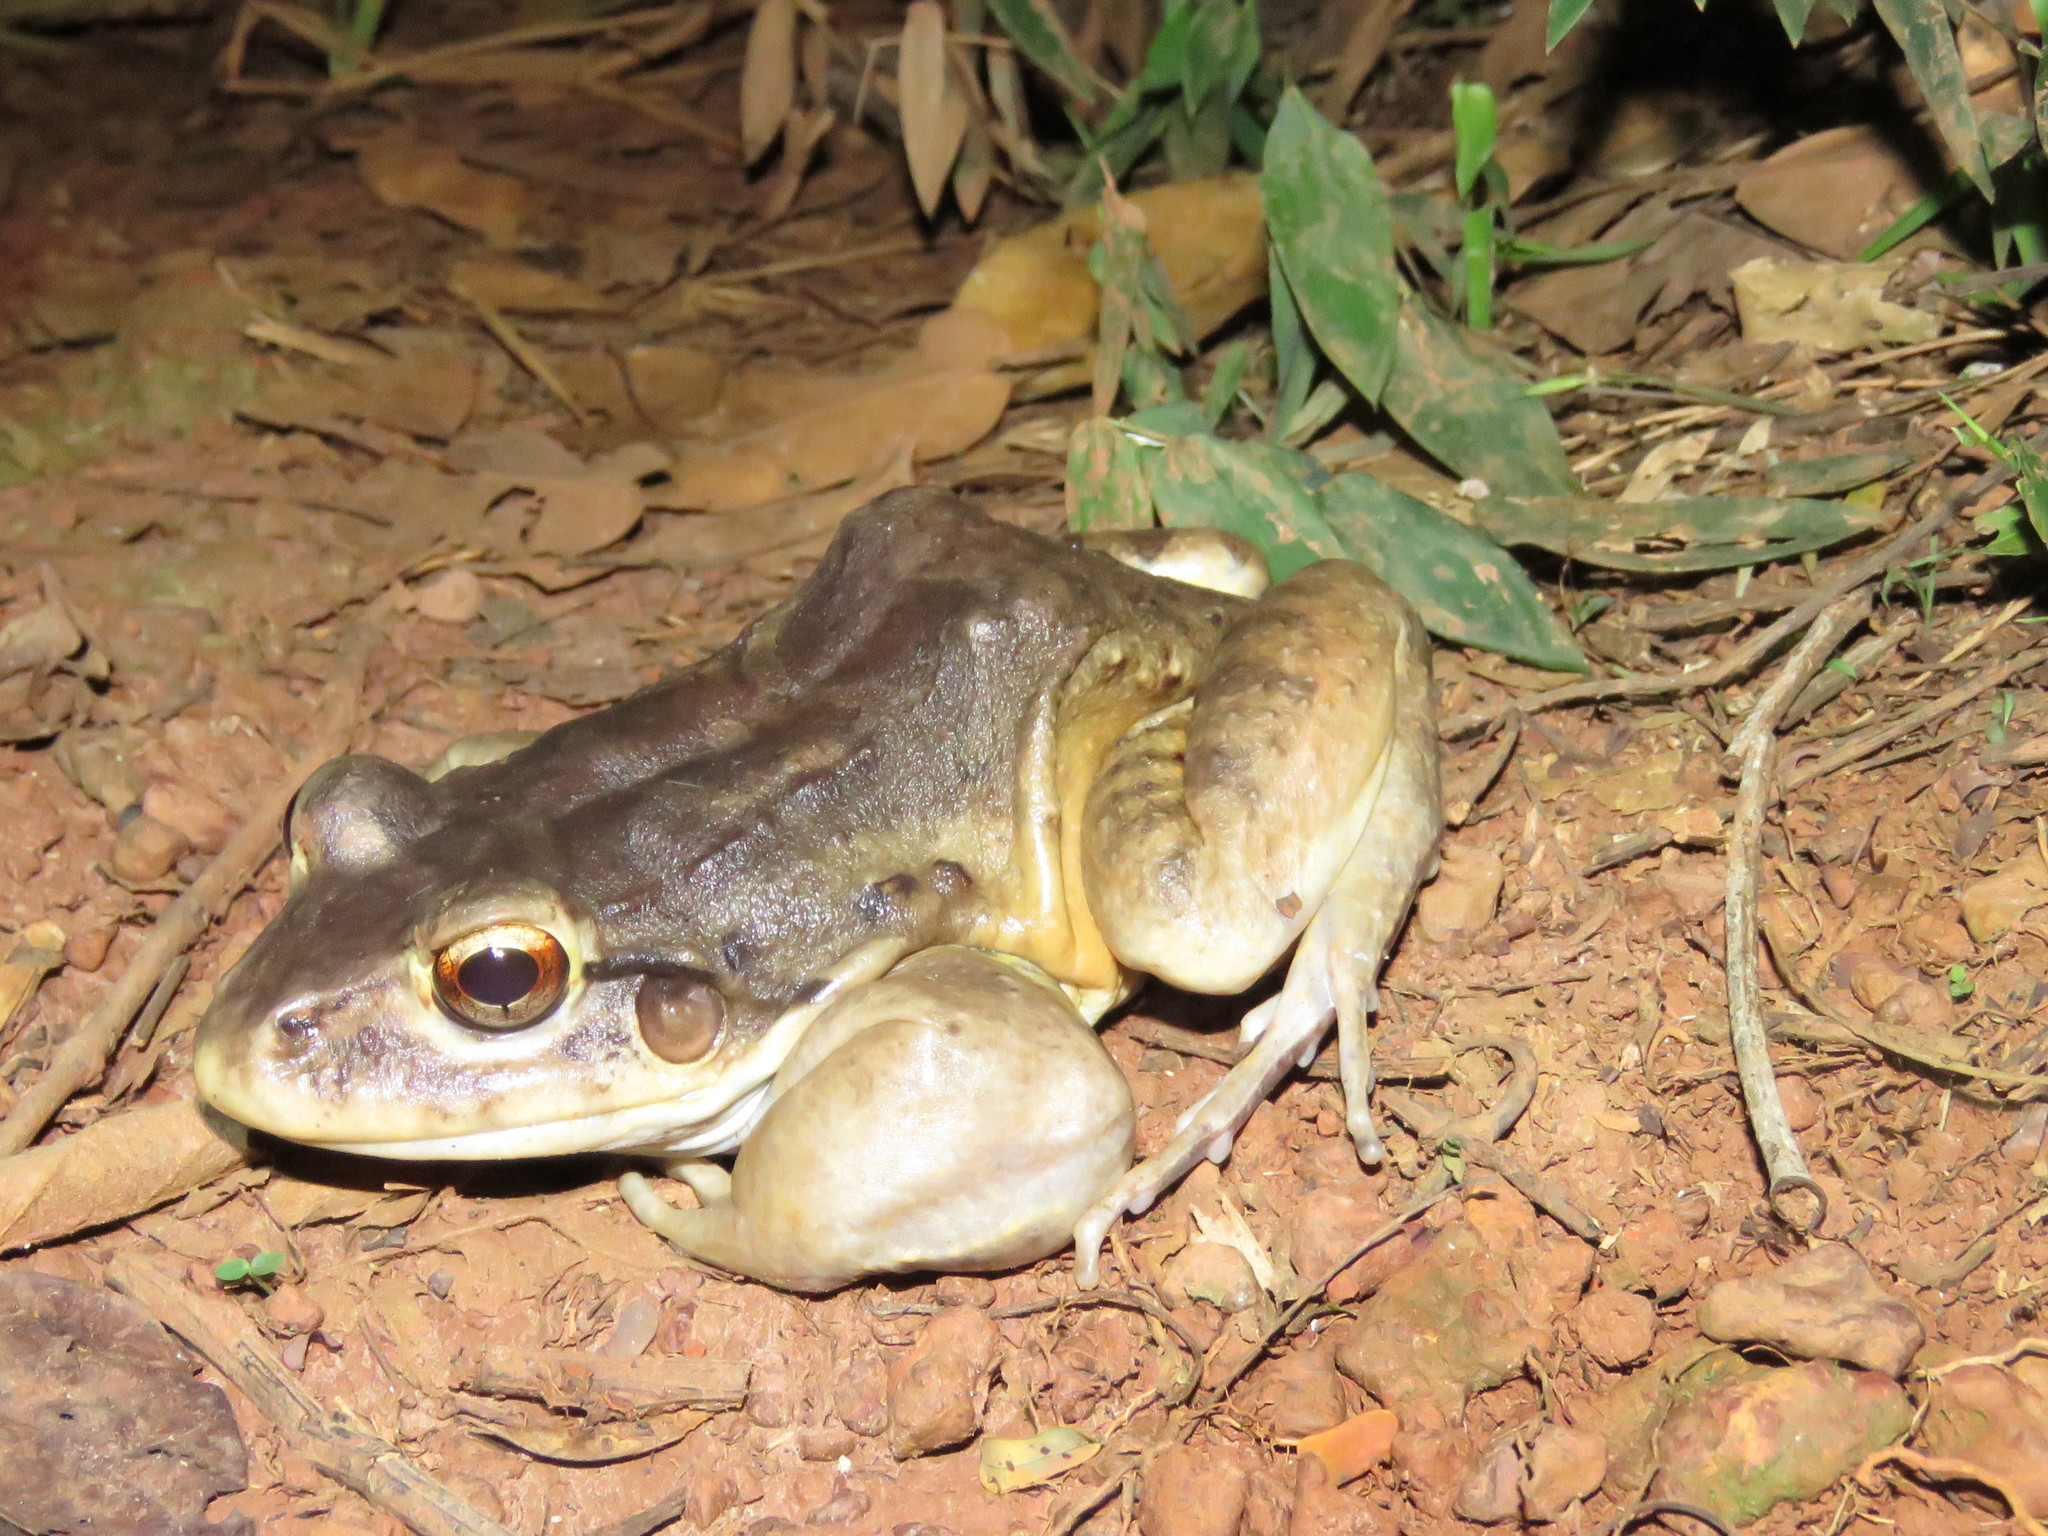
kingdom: Animalia
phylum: Chordata
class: Amphibia
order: Anura
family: Leptodactylidae
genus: Leptodactylus
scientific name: Leptodactylus vastus
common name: Northeastern pepper frog
